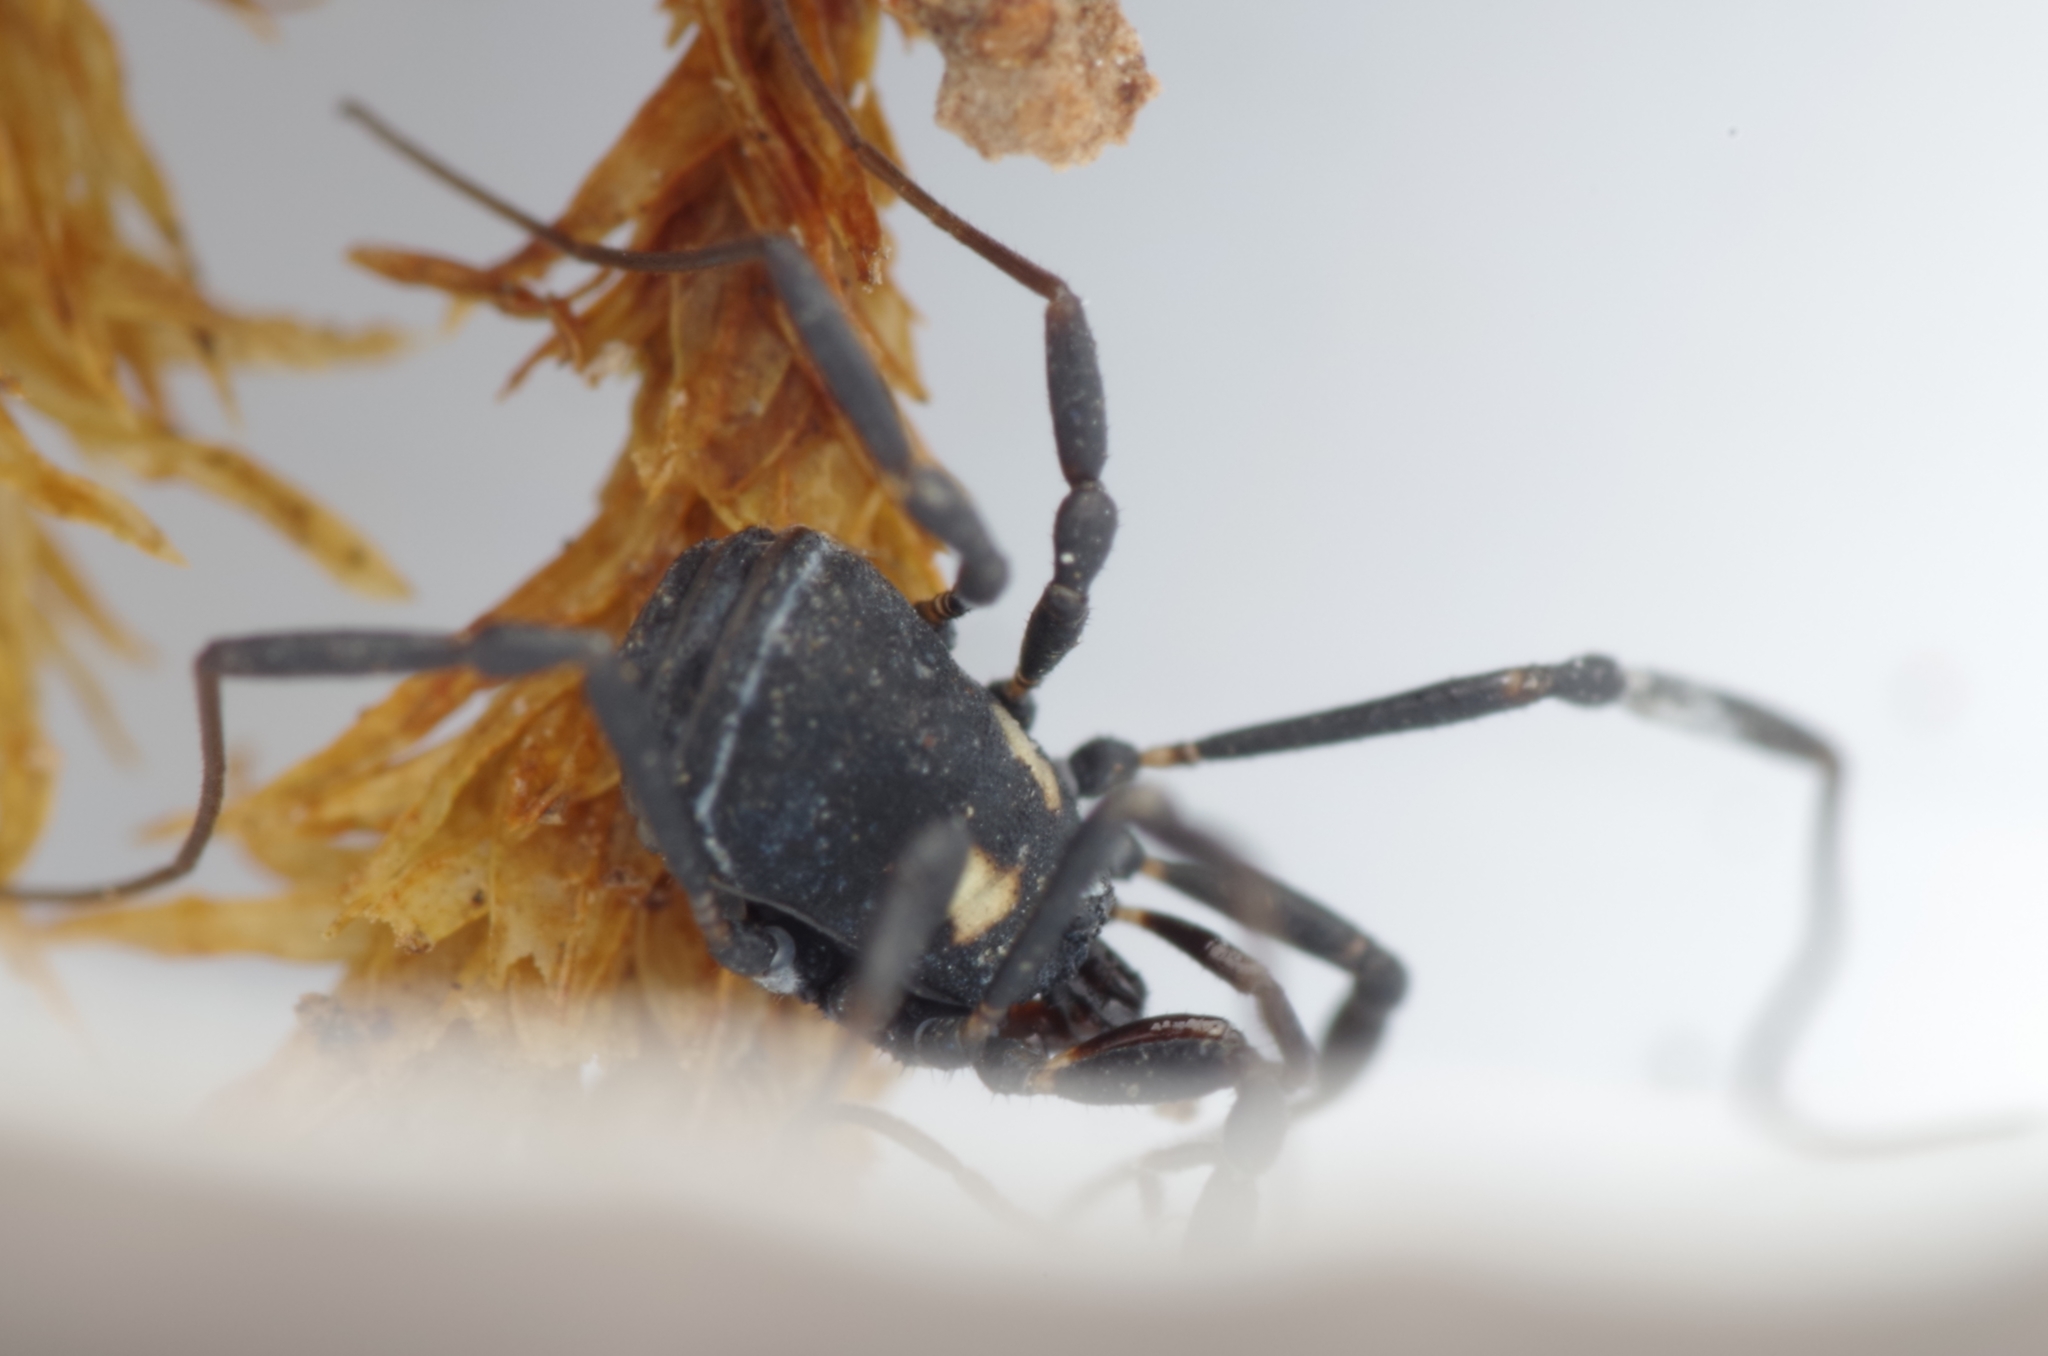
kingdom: Animalia
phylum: Arthropoda
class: Arachnida
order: Opiliones
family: Nemastomatidae
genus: Nemastoma
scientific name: Nemastoma bimaculatum
